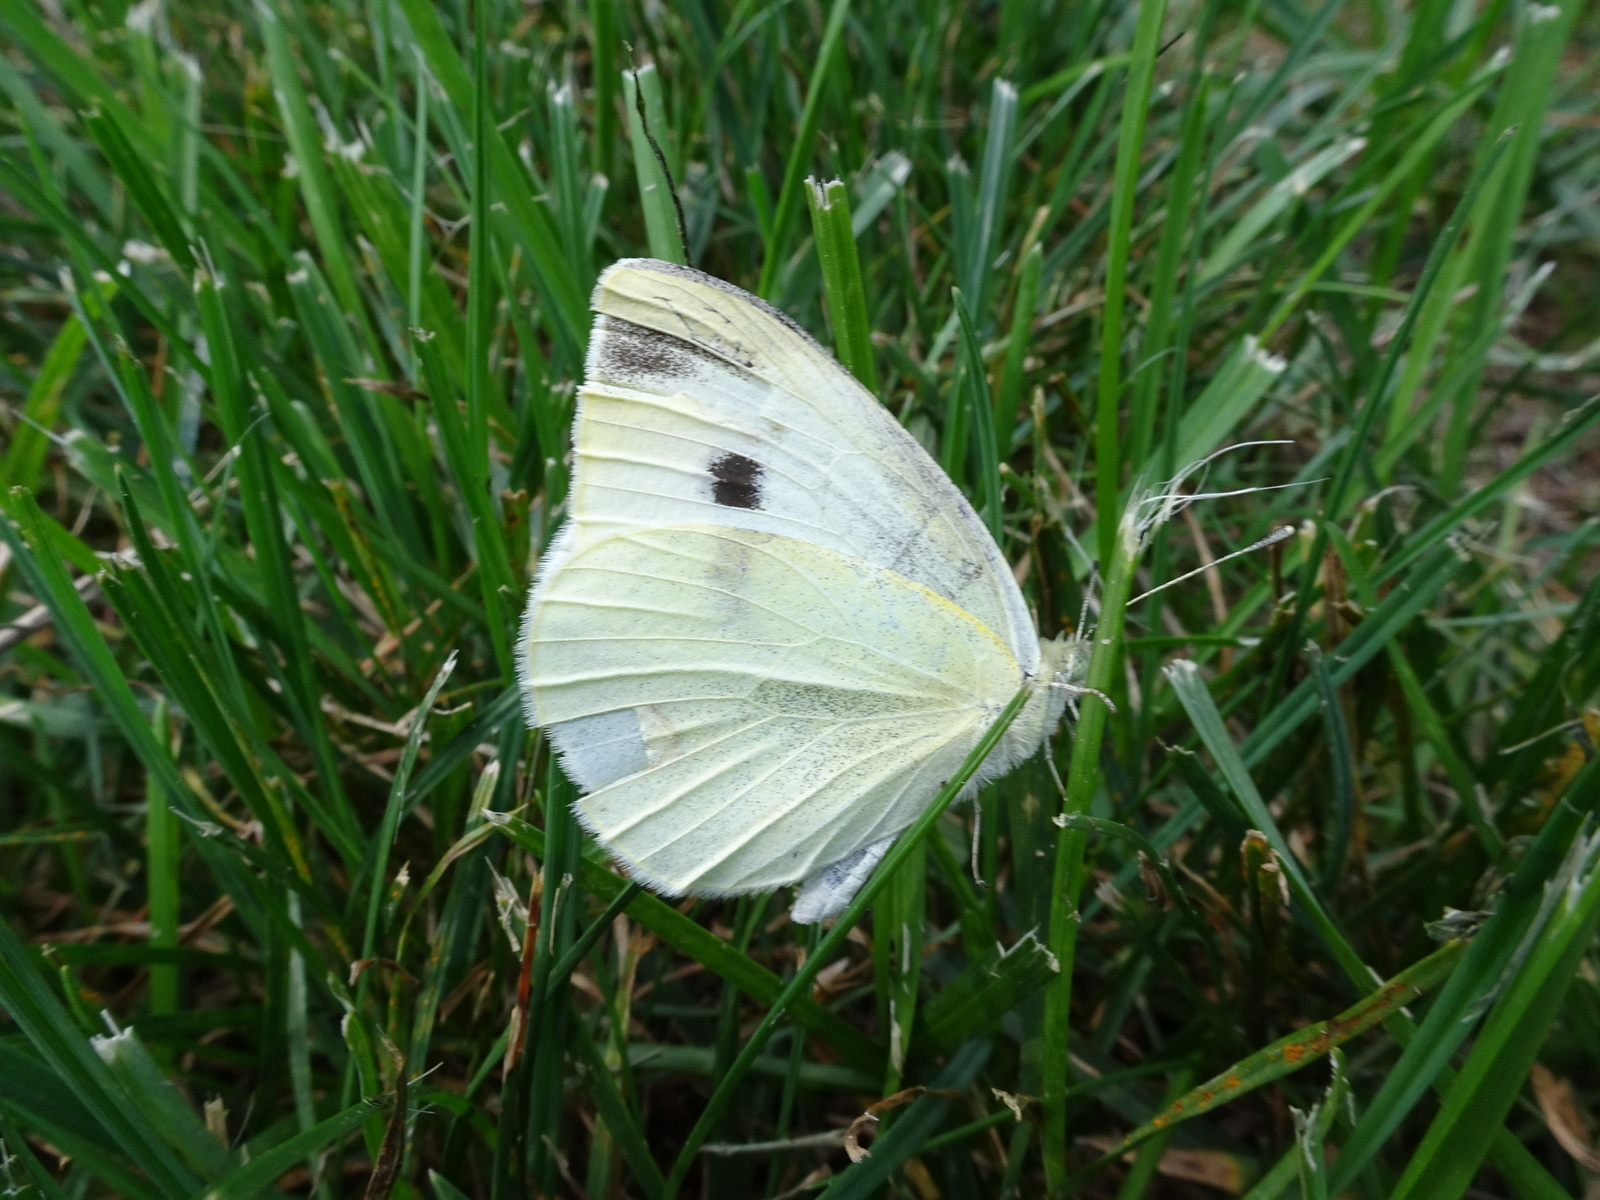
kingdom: Animalia
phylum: Arthropoda
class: Insecta
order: Lepidoptera
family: Pieridae
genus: Pieris
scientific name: Pieris rapae
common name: Small white
